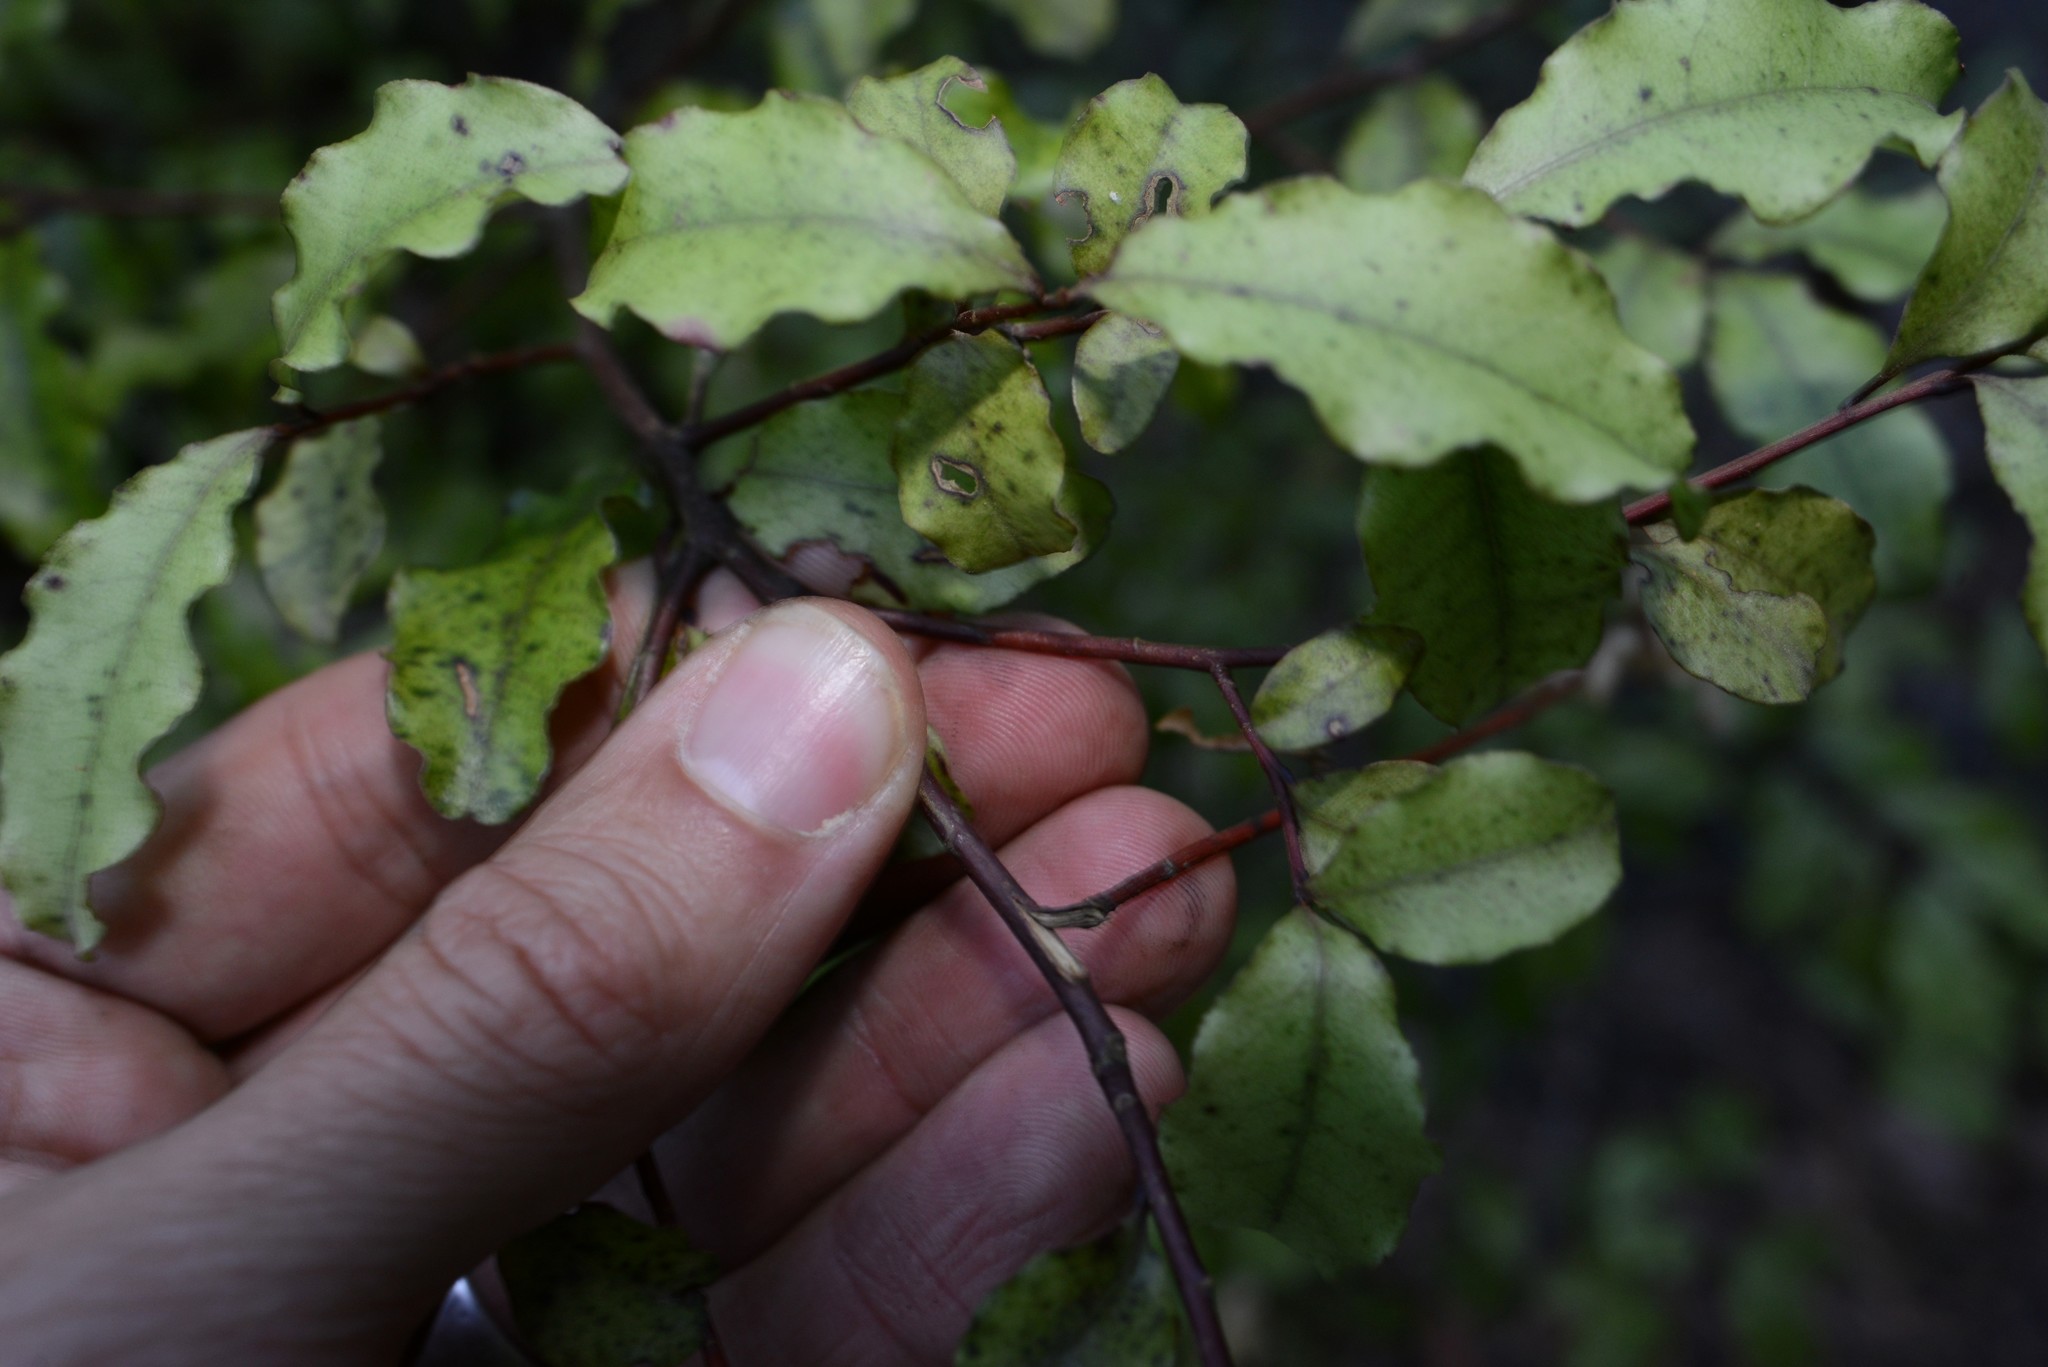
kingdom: Plantae
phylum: Tracheophyta
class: Magnoliopsida
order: Ericales
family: Primulaceae
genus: Myrsine
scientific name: Myrsine australis
